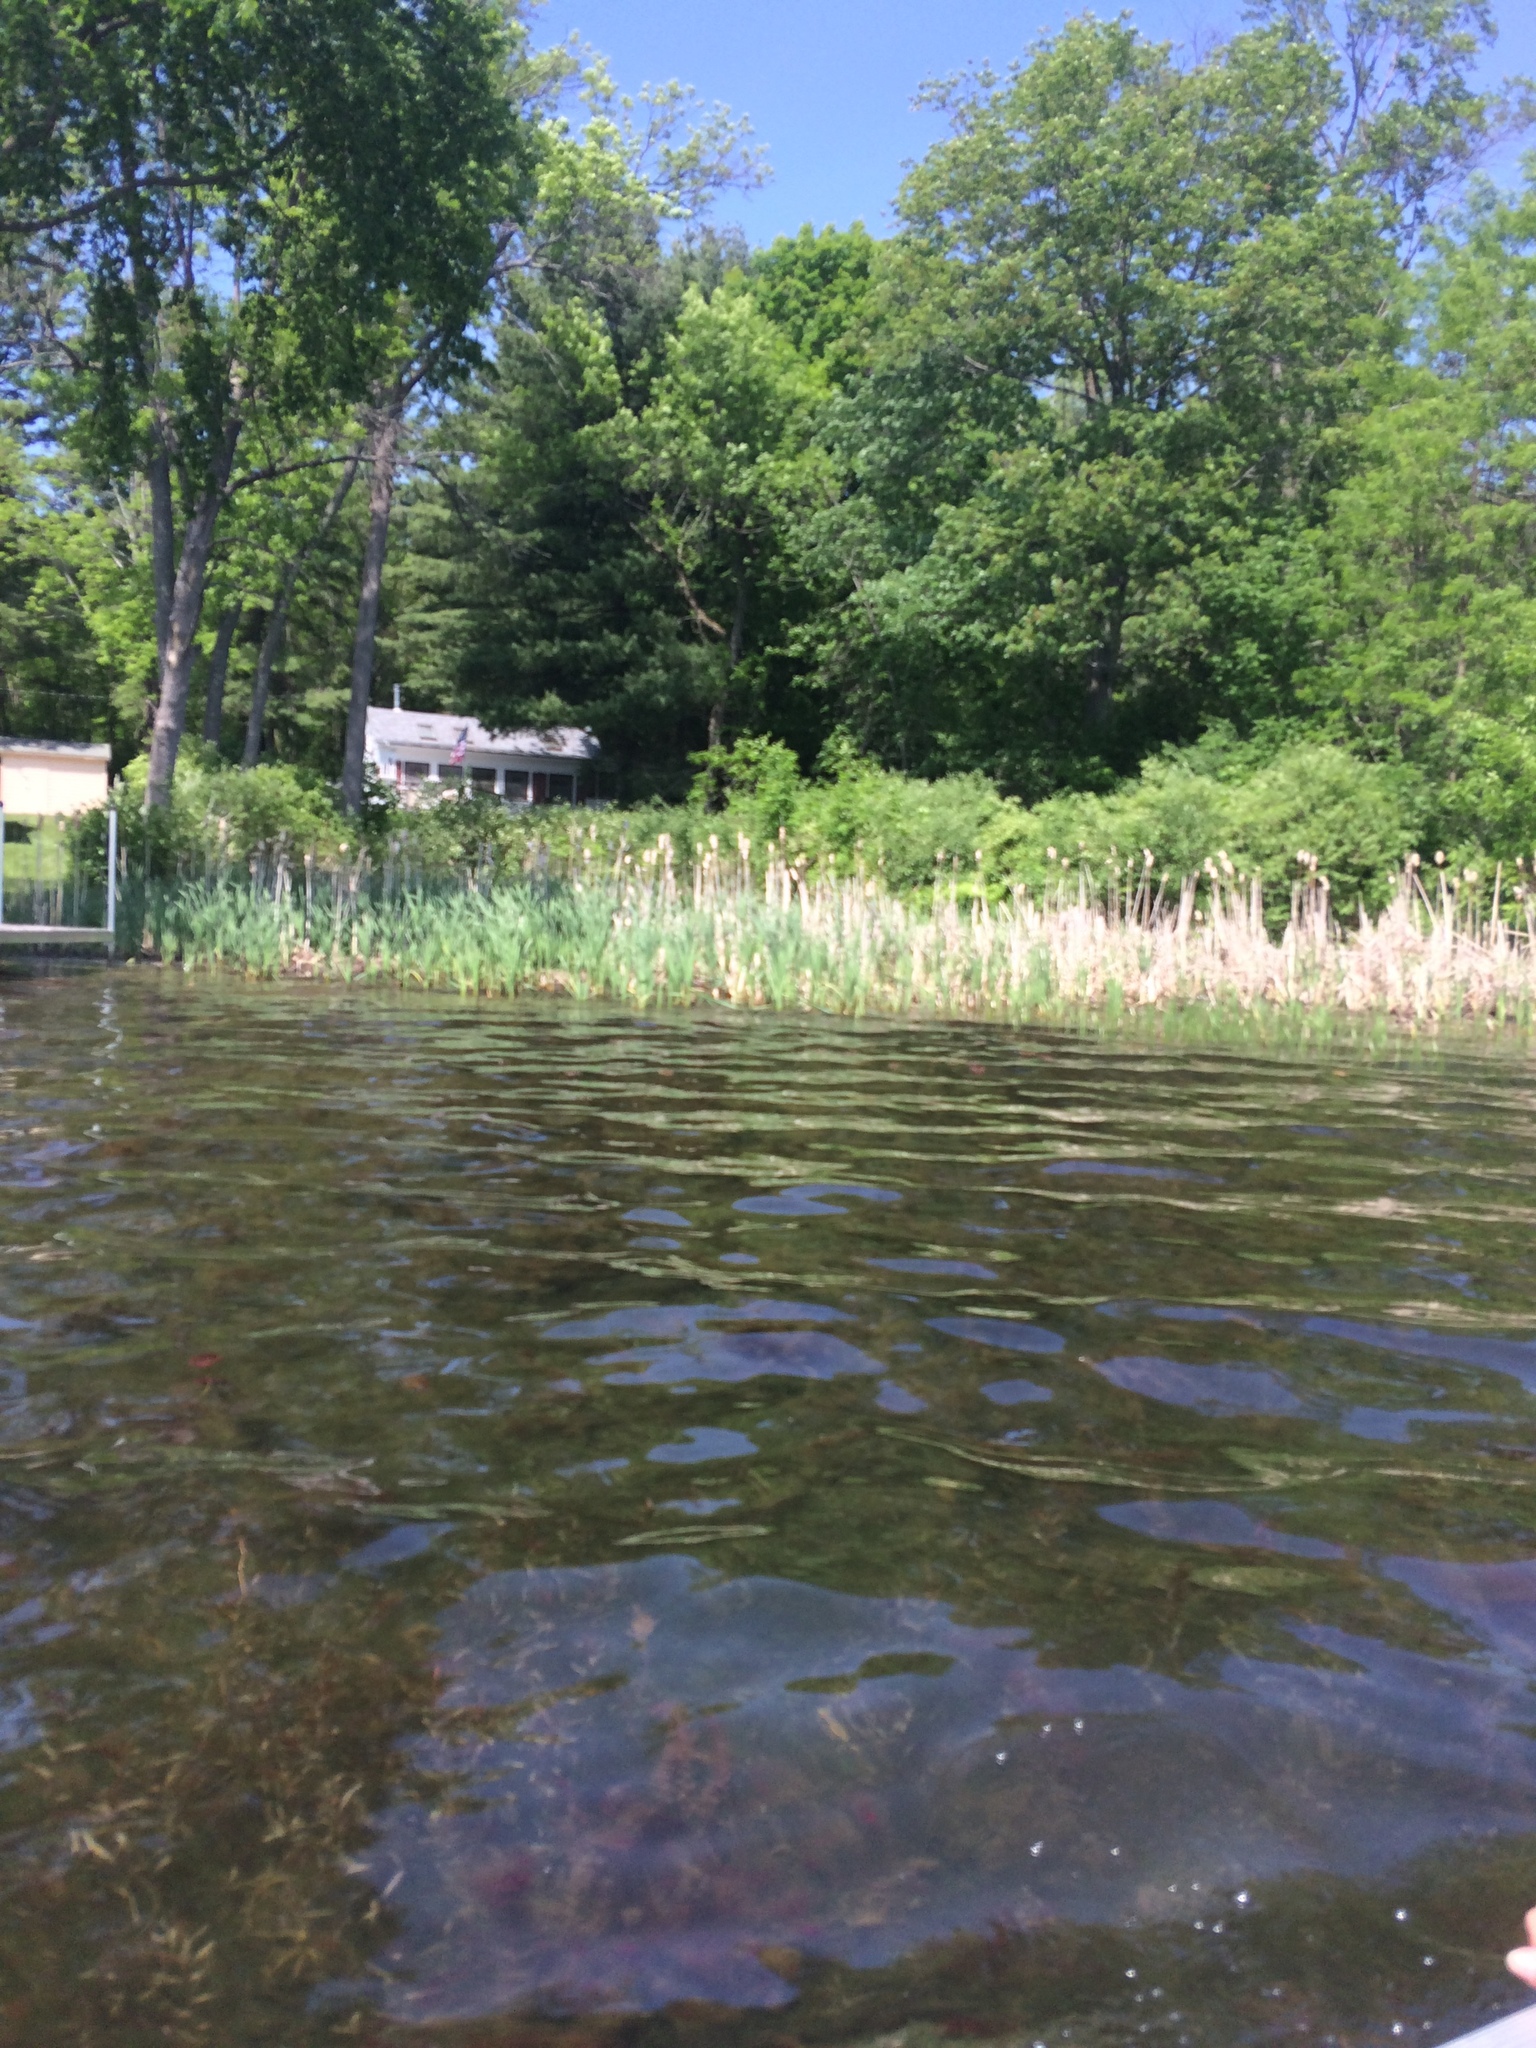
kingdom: Plantae
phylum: Tracheophyta
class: Liliopsida
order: Poales
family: Typhaceae
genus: Typha
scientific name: Typha
